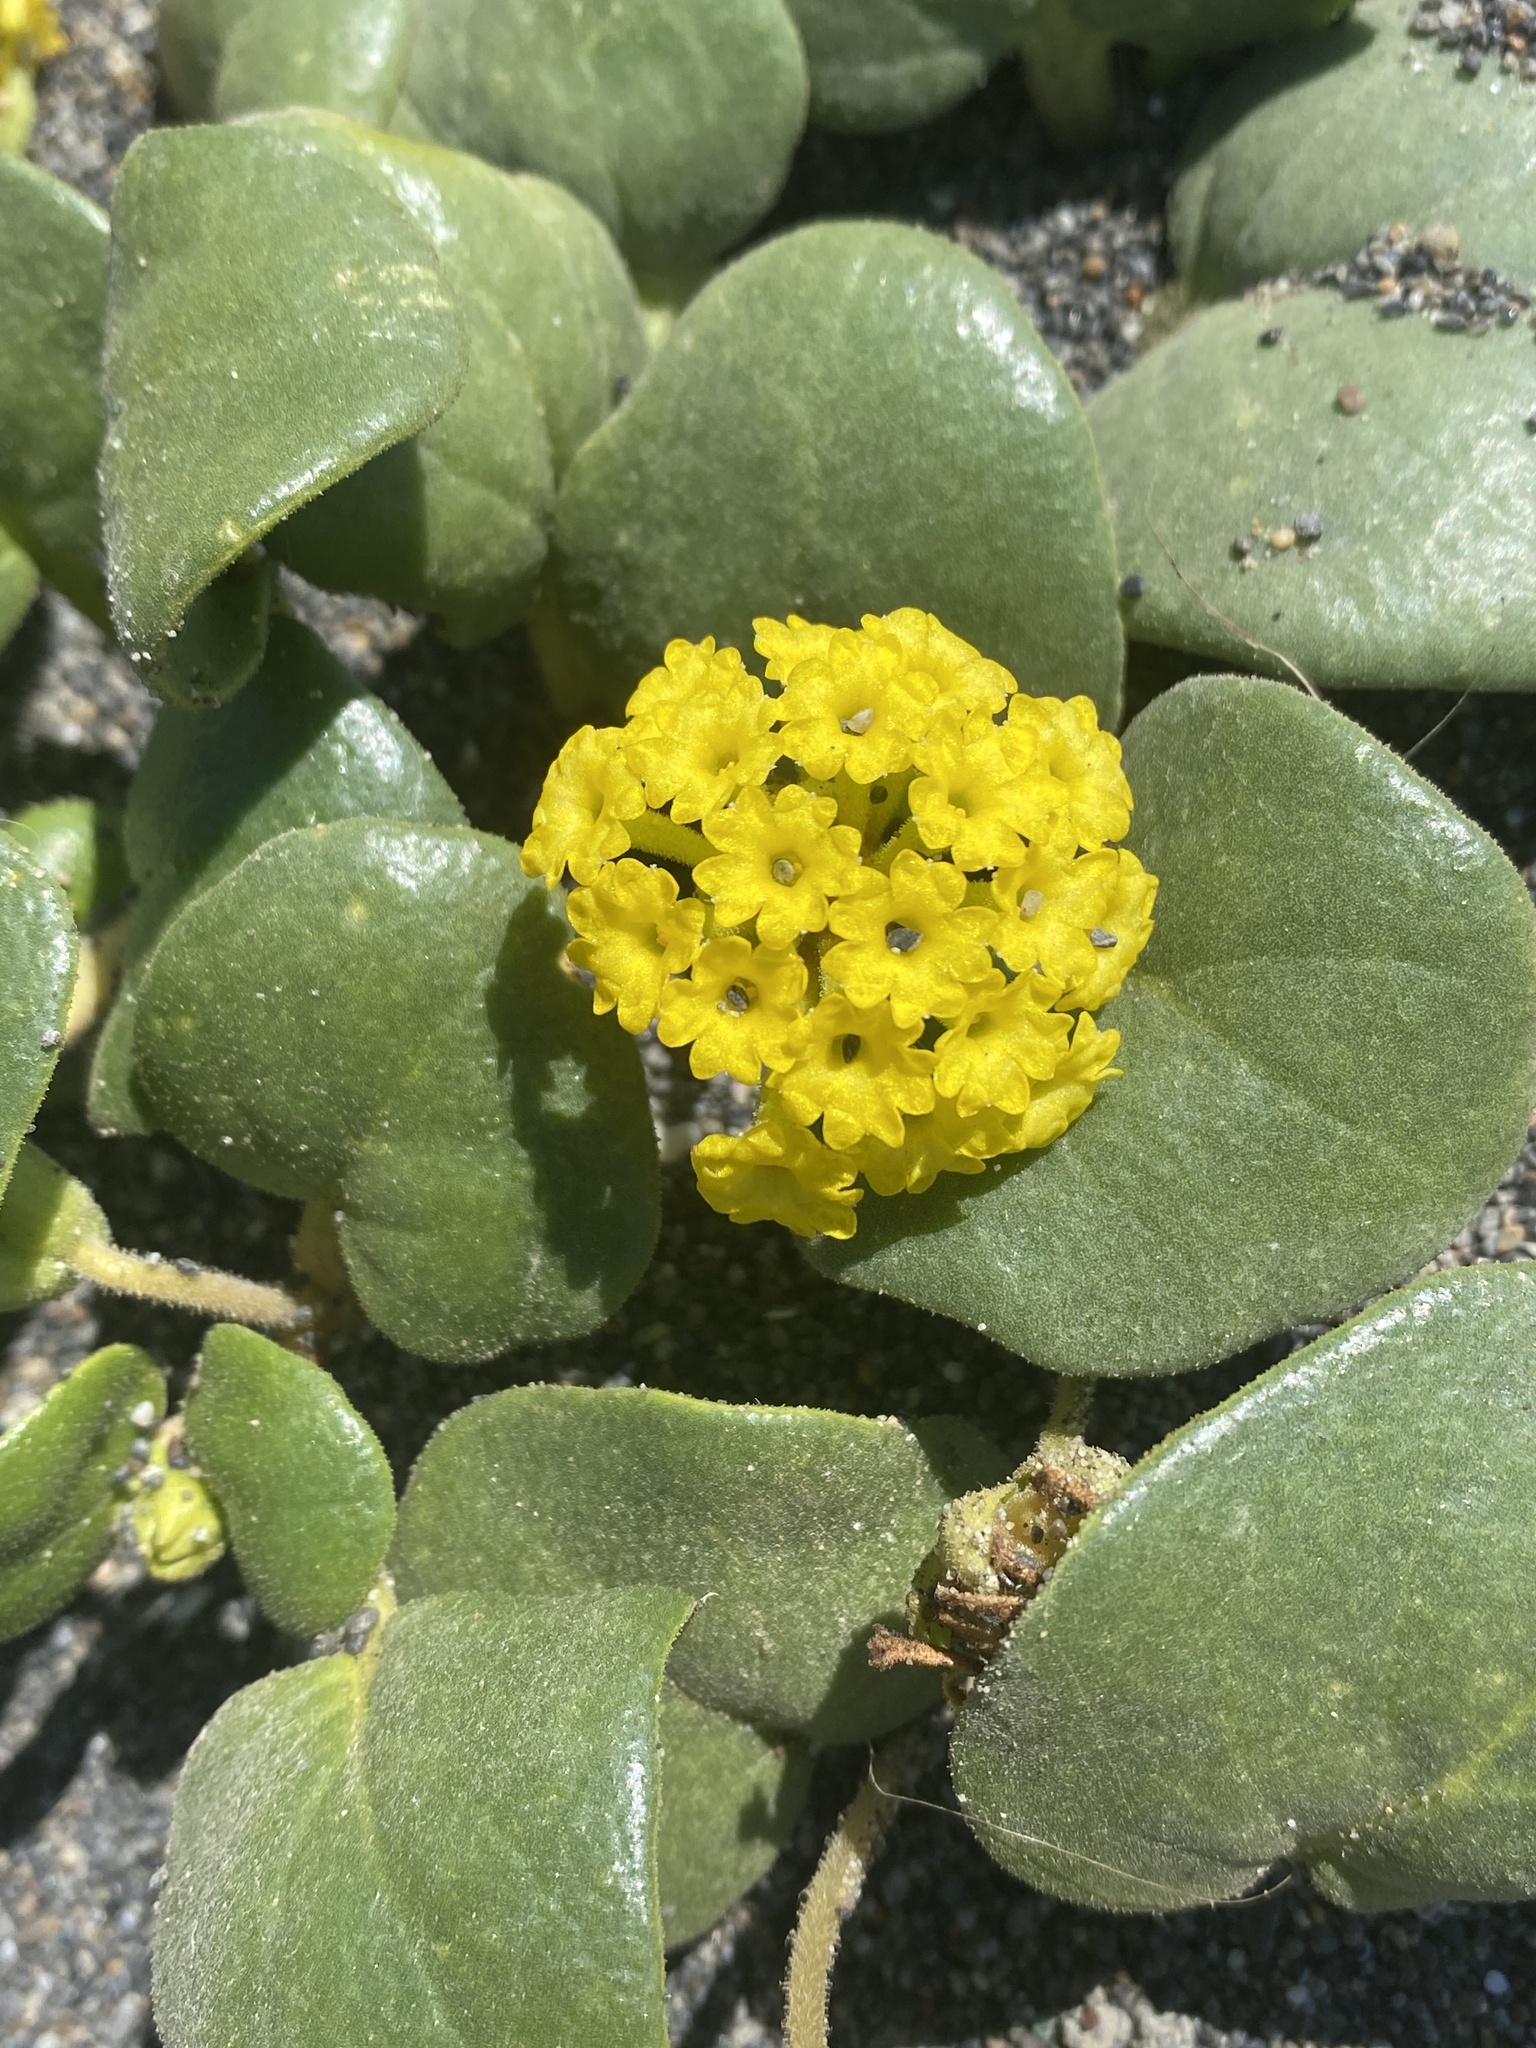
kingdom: Plantae
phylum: Tracheophyta
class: Magnoliopsida
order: Caryophyllales
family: Nyctaginaceae
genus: Abronia
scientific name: Abronia latifolia
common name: Yellow sand-verbena
